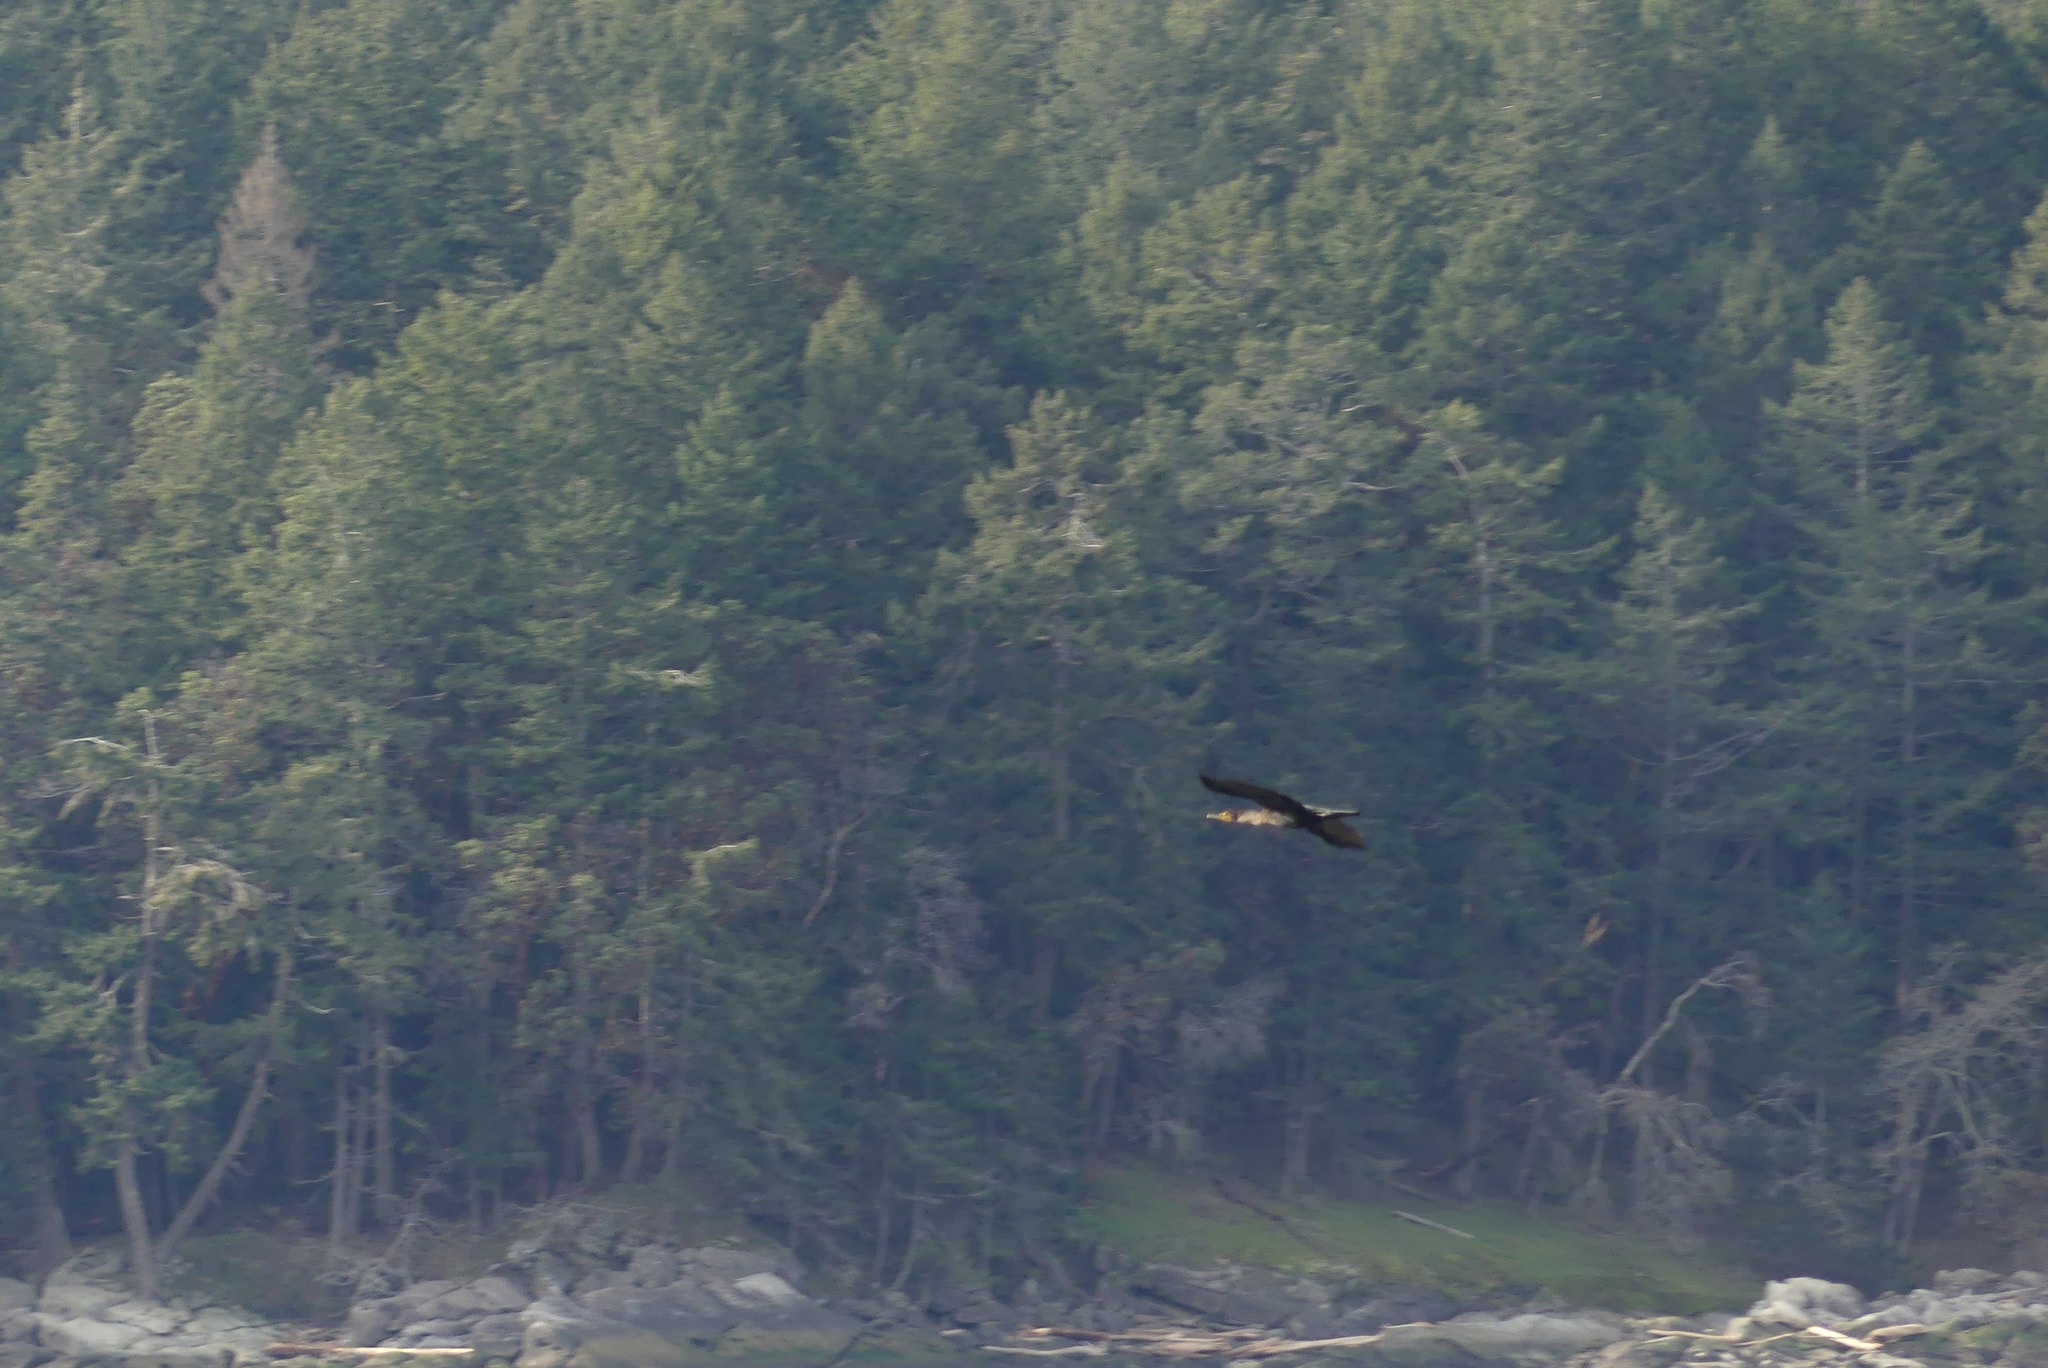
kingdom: Animalia
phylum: Chordata
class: Aves
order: Suliformes
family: Phalacrocoracidae
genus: Phalacrocorax
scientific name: Phalacrocorax auritus
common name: Double-crested cormorant
